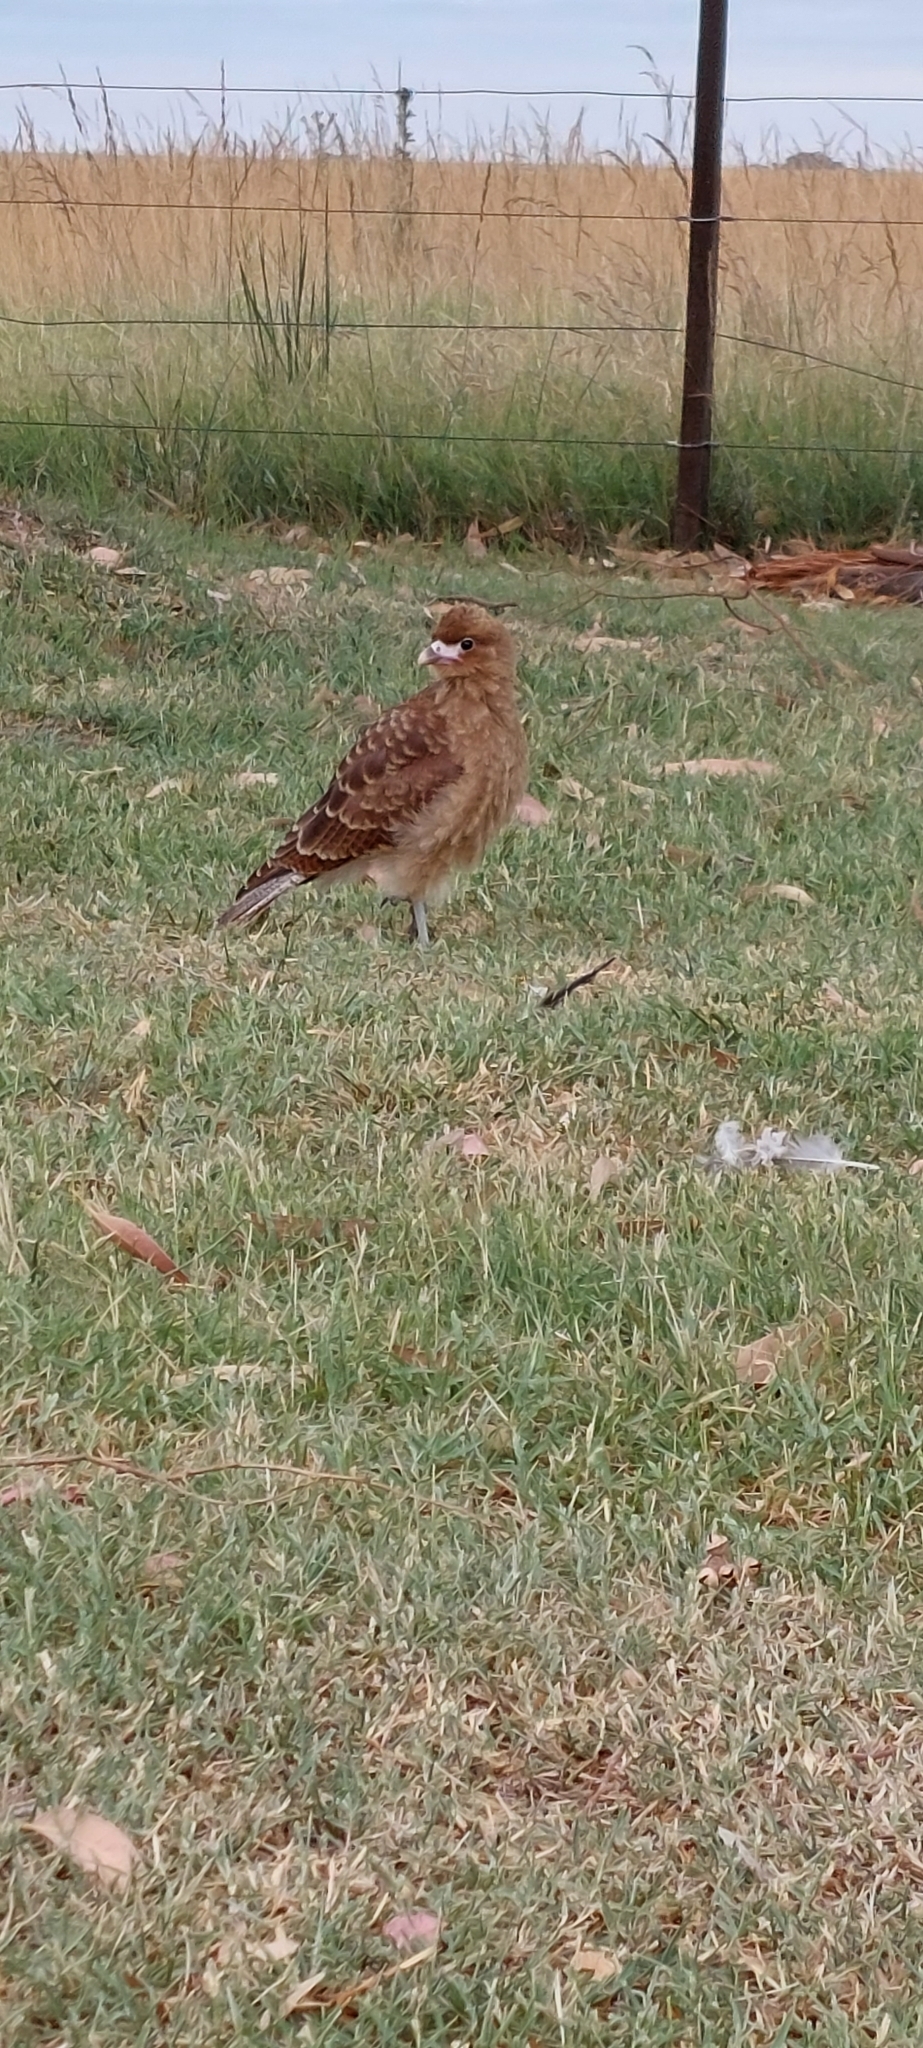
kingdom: Animalia
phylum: Chordata
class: Aves
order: Falconiformes
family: Falconidae
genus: Daptrius
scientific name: Daptrius
